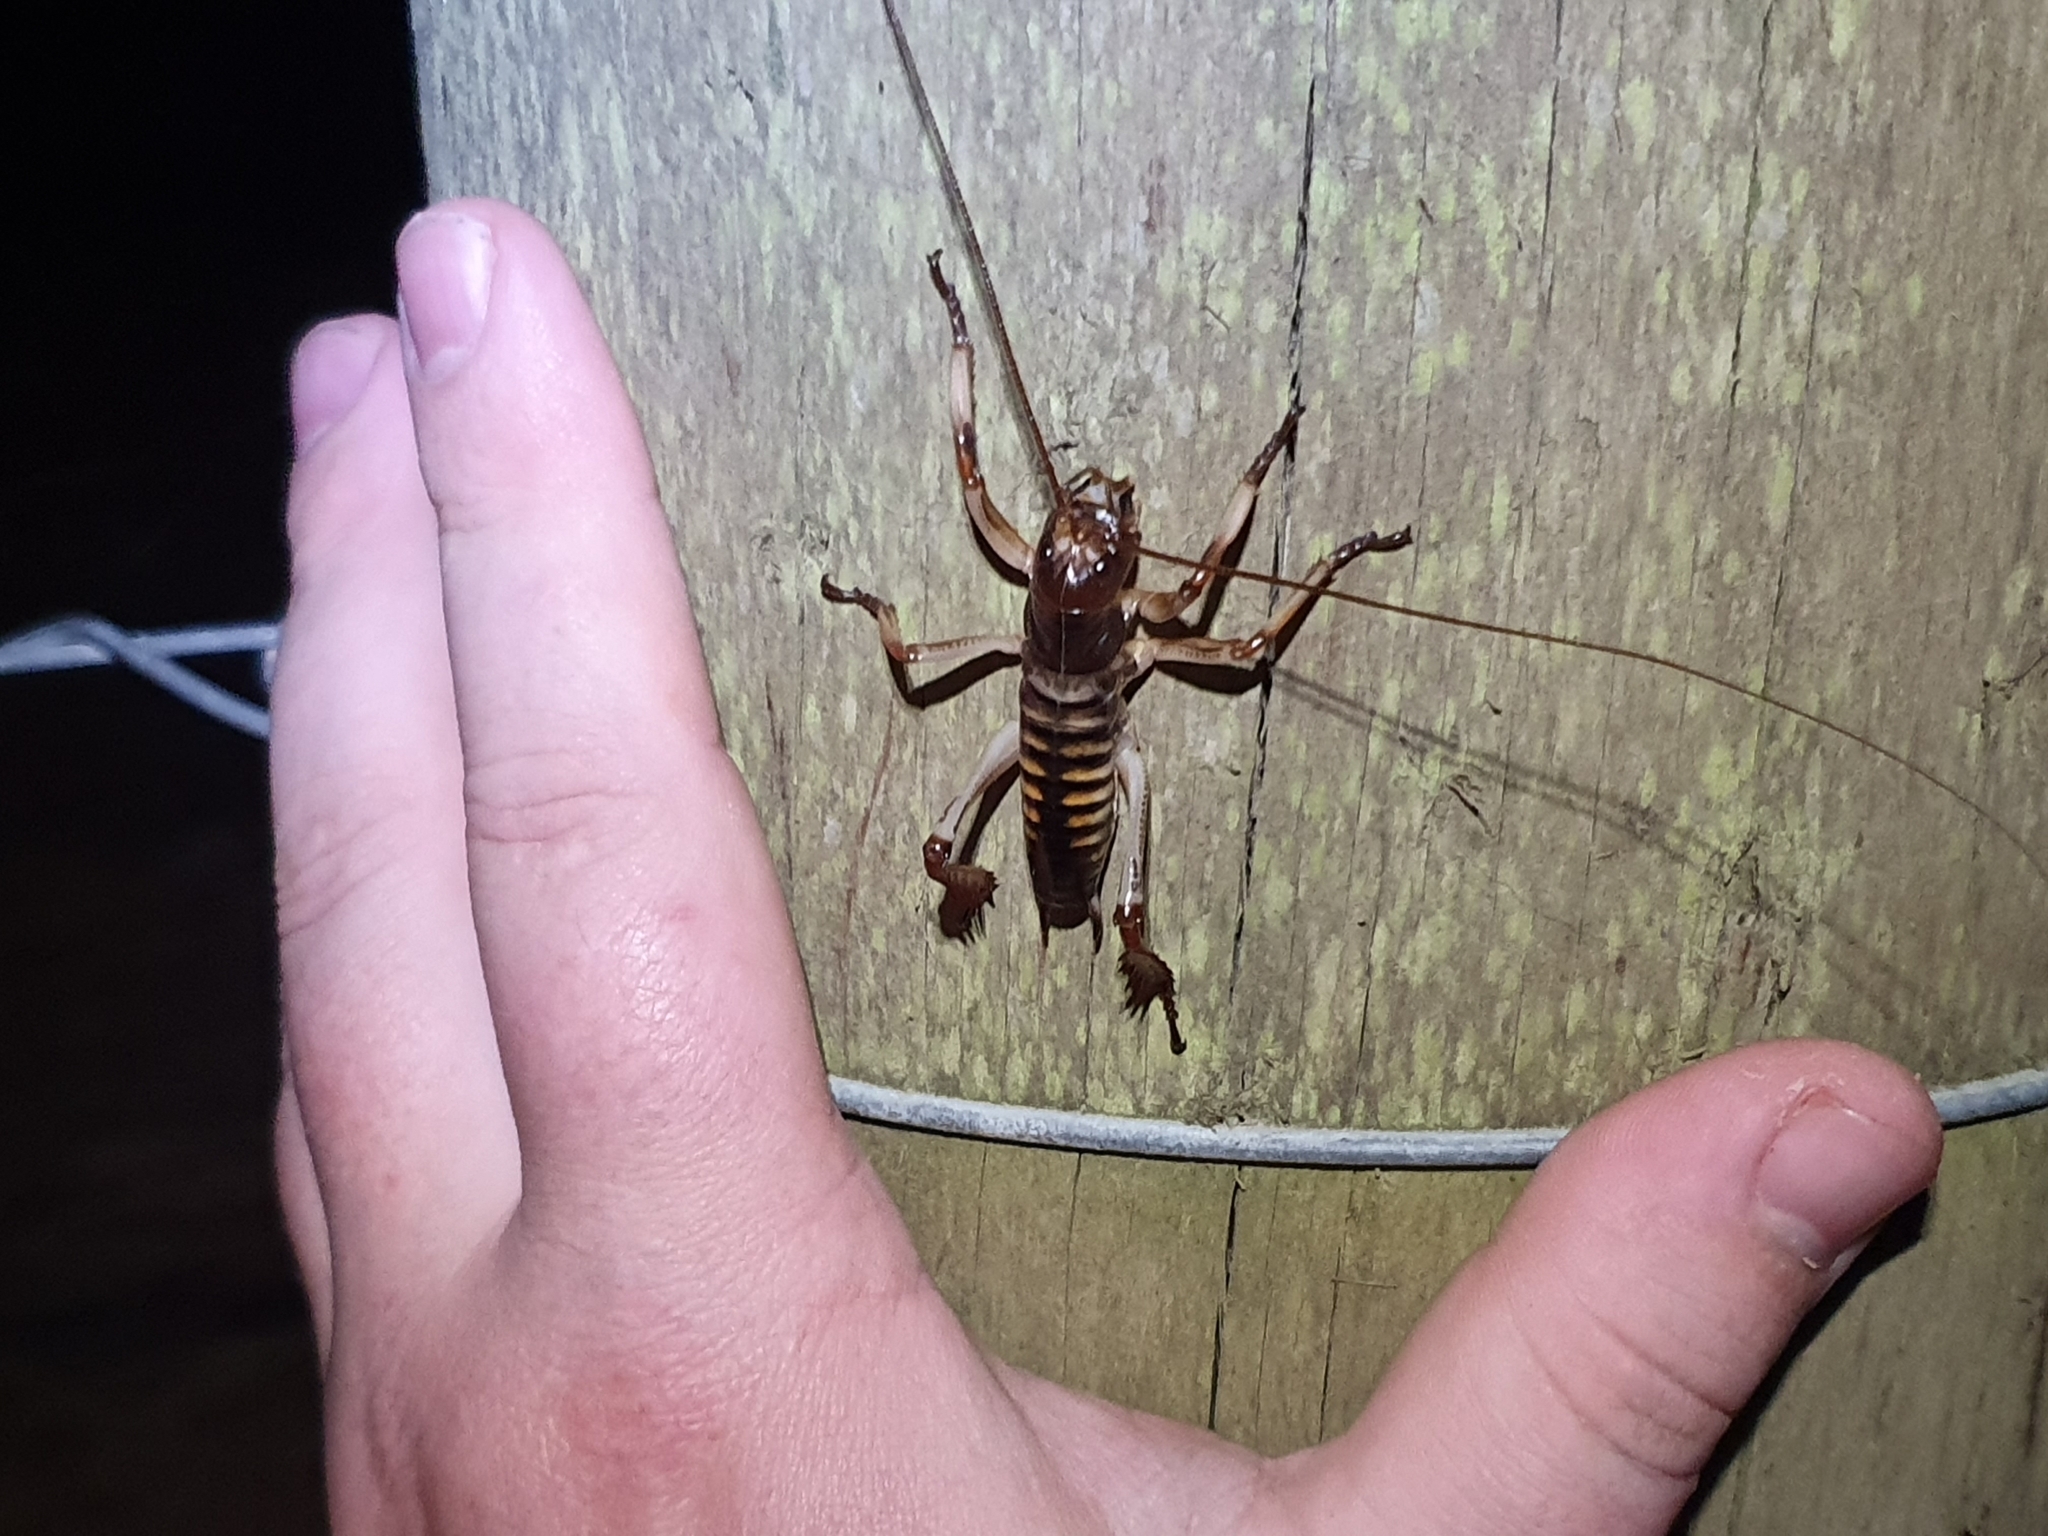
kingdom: Animalia
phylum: Arthropoda
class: Insecta
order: Orthoptera
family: Anostostomatidae
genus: Hemideina
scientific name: Hemideina crassidens
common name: Wellington tree weta
